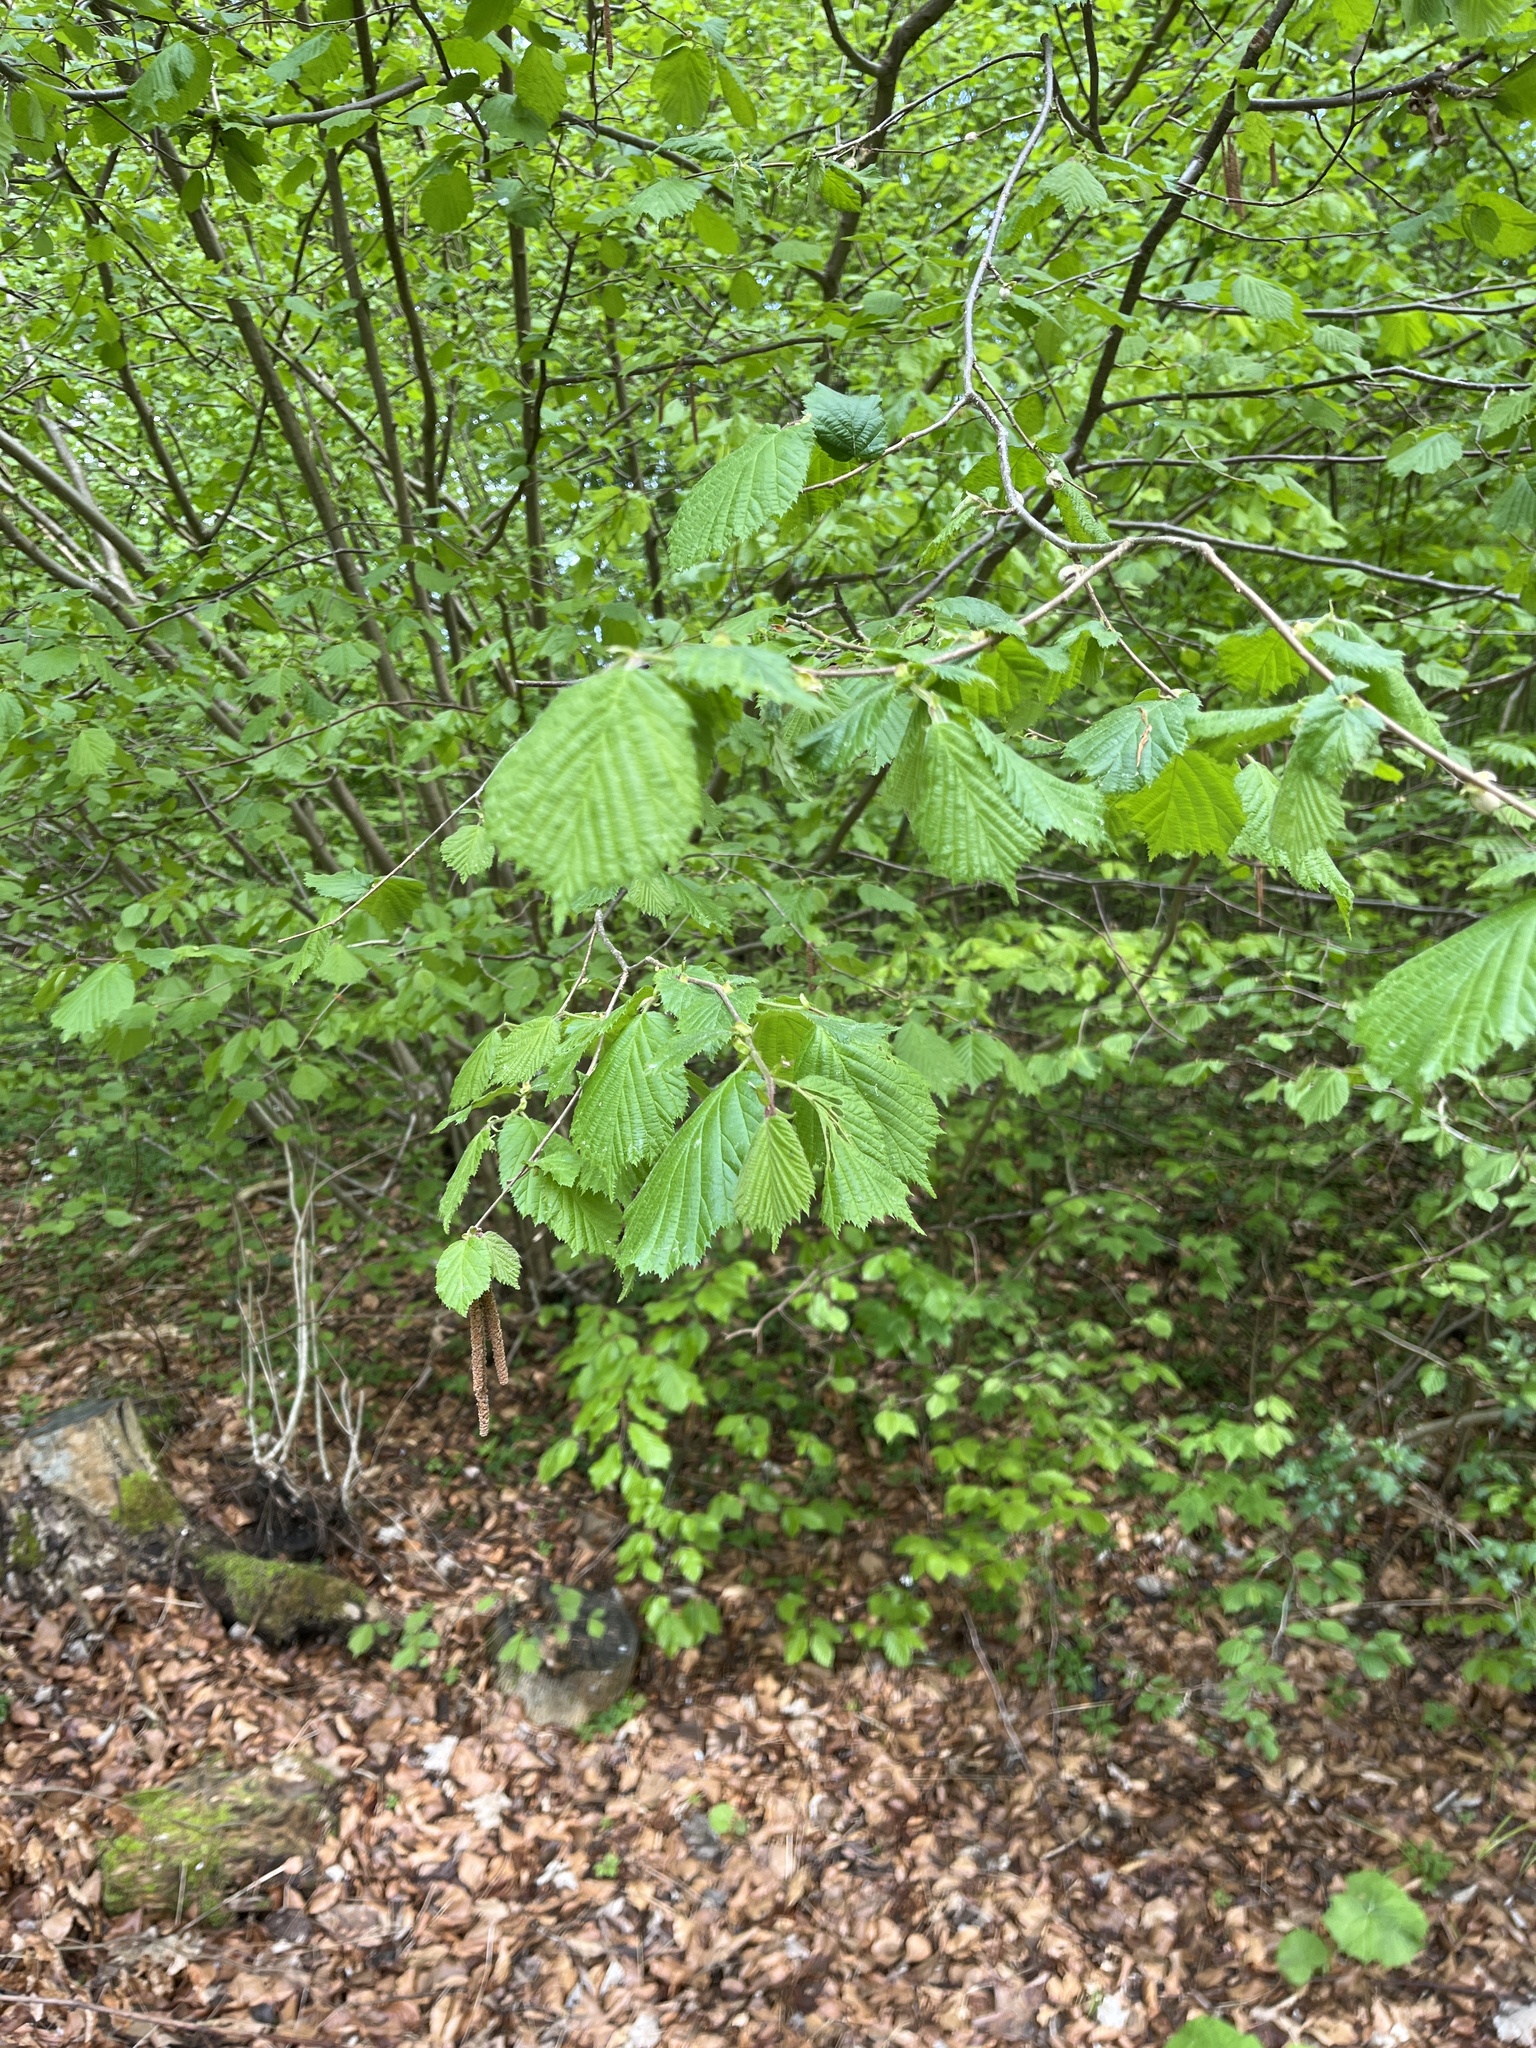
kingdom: Plantae
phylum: Tracheophyta
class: Magnoliopsida
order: Fagales
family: Betulaceae
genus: Corylus
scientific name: Corylus avellana
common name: European hazel
